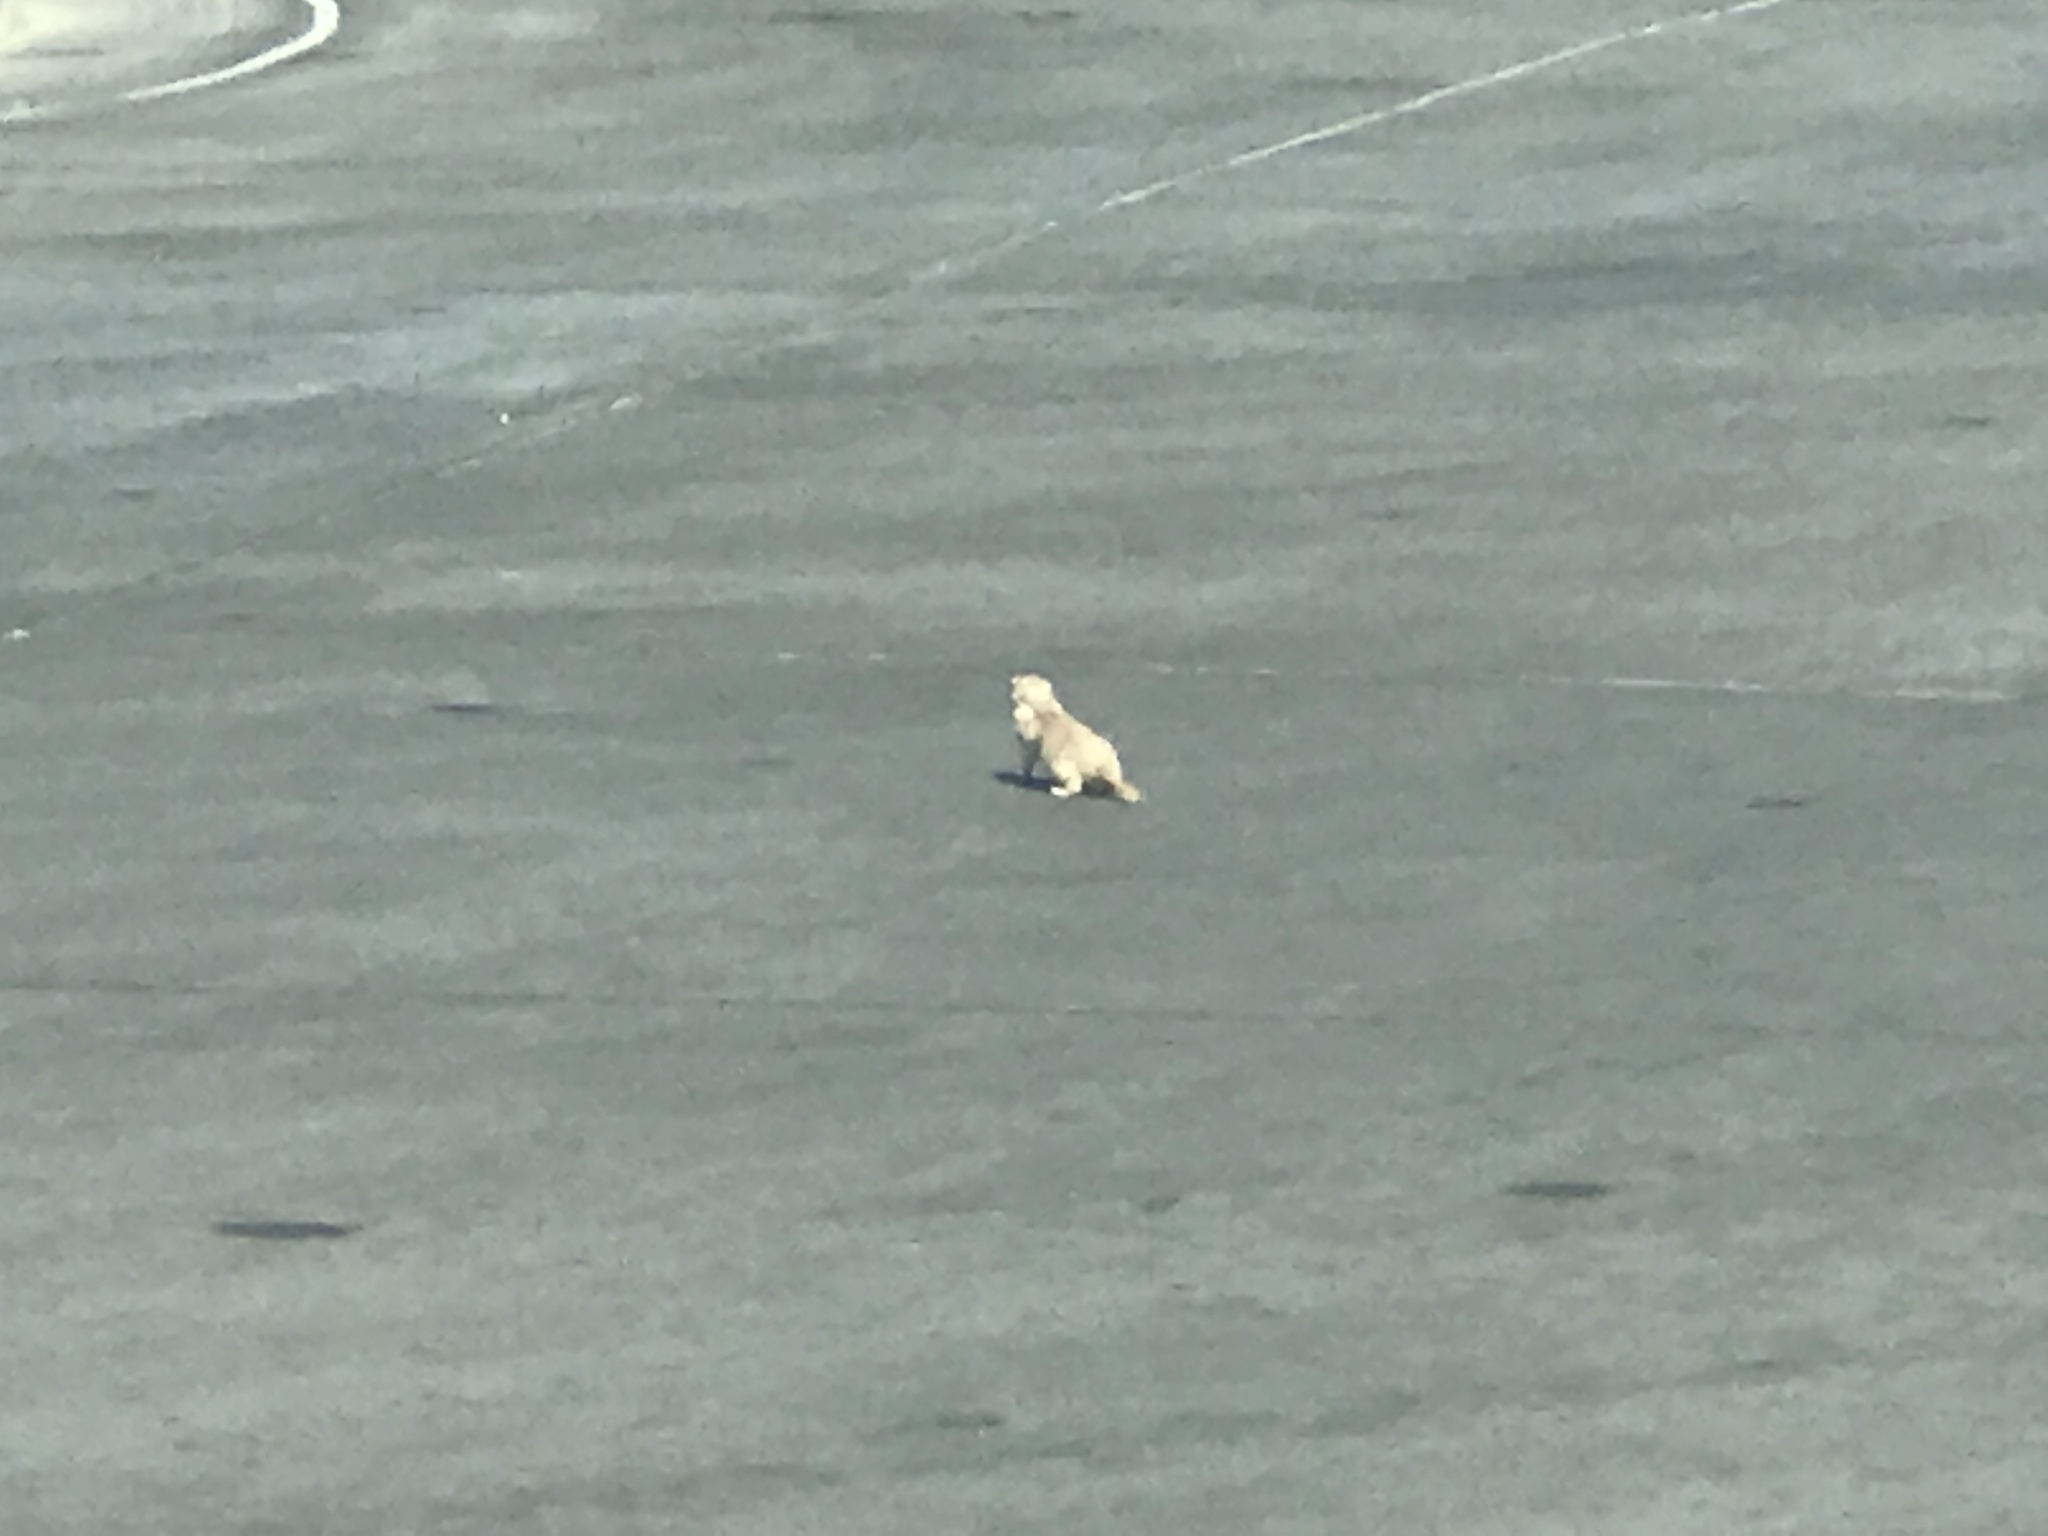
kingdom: Animalia
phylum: Chordata
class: Mammalia
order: Rodentia
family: Sciuridae
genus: Xerospermophilus
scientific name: Xerospermophilus tereticaudus
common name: Round-tailed ground squirrel
